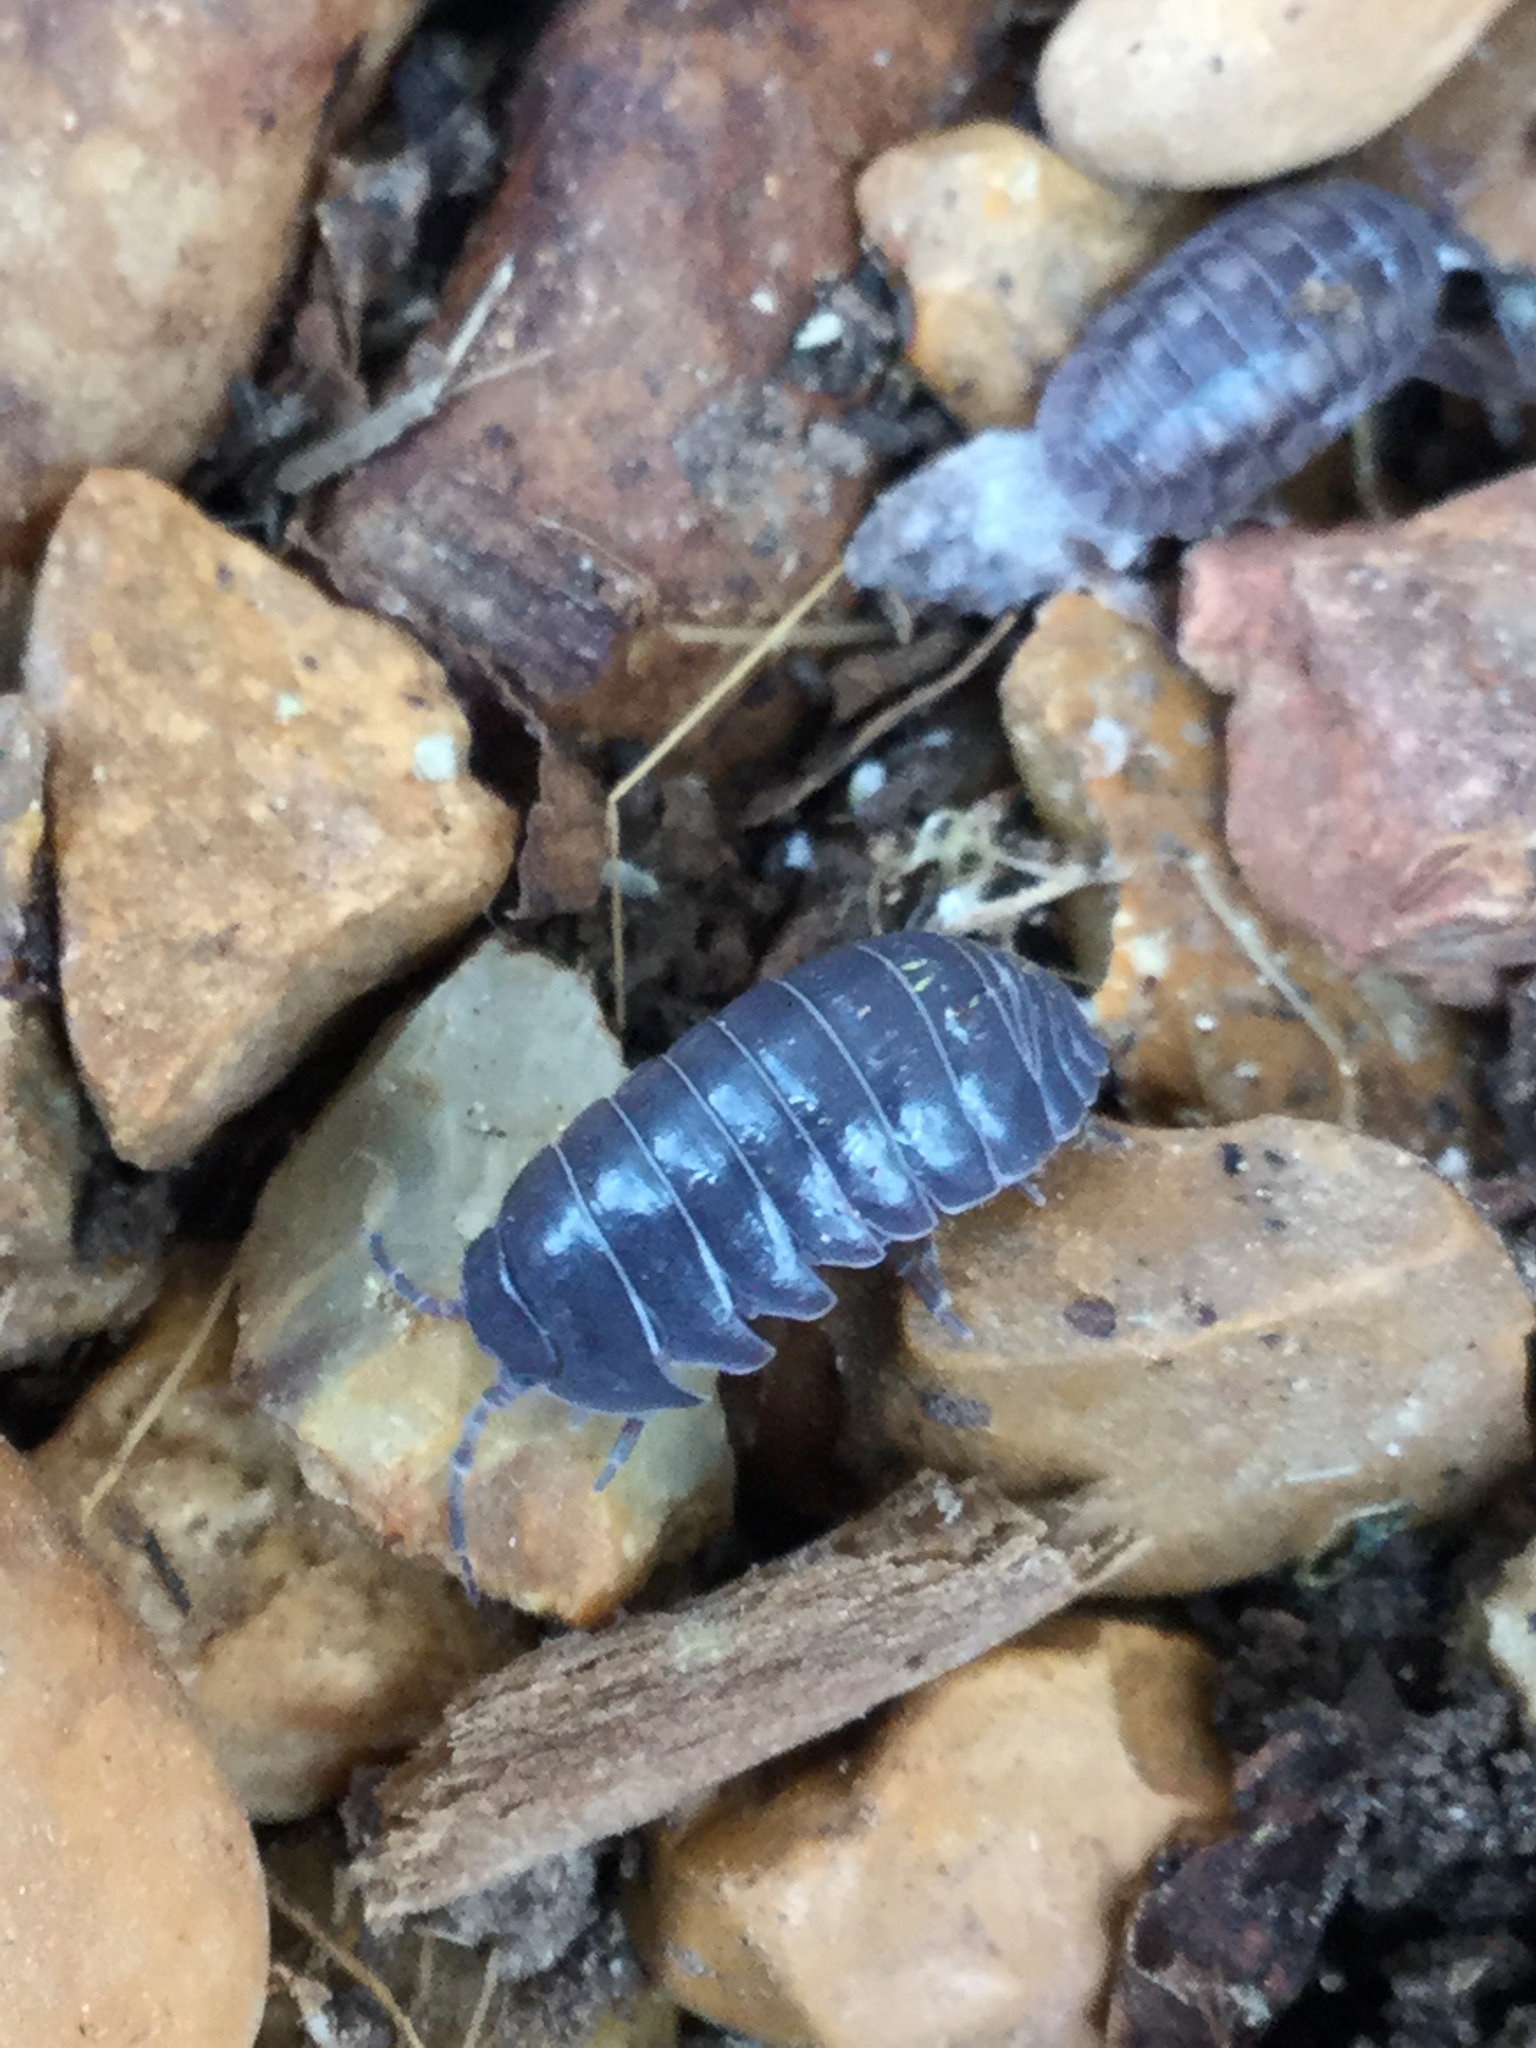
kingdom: Animalia
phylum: Arthropoda
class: Malacostraca
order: Isopoda
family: Armadillidiidae
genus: Armadillidium
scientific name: Armadillidium vulgare
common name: Common pill woodlouse
